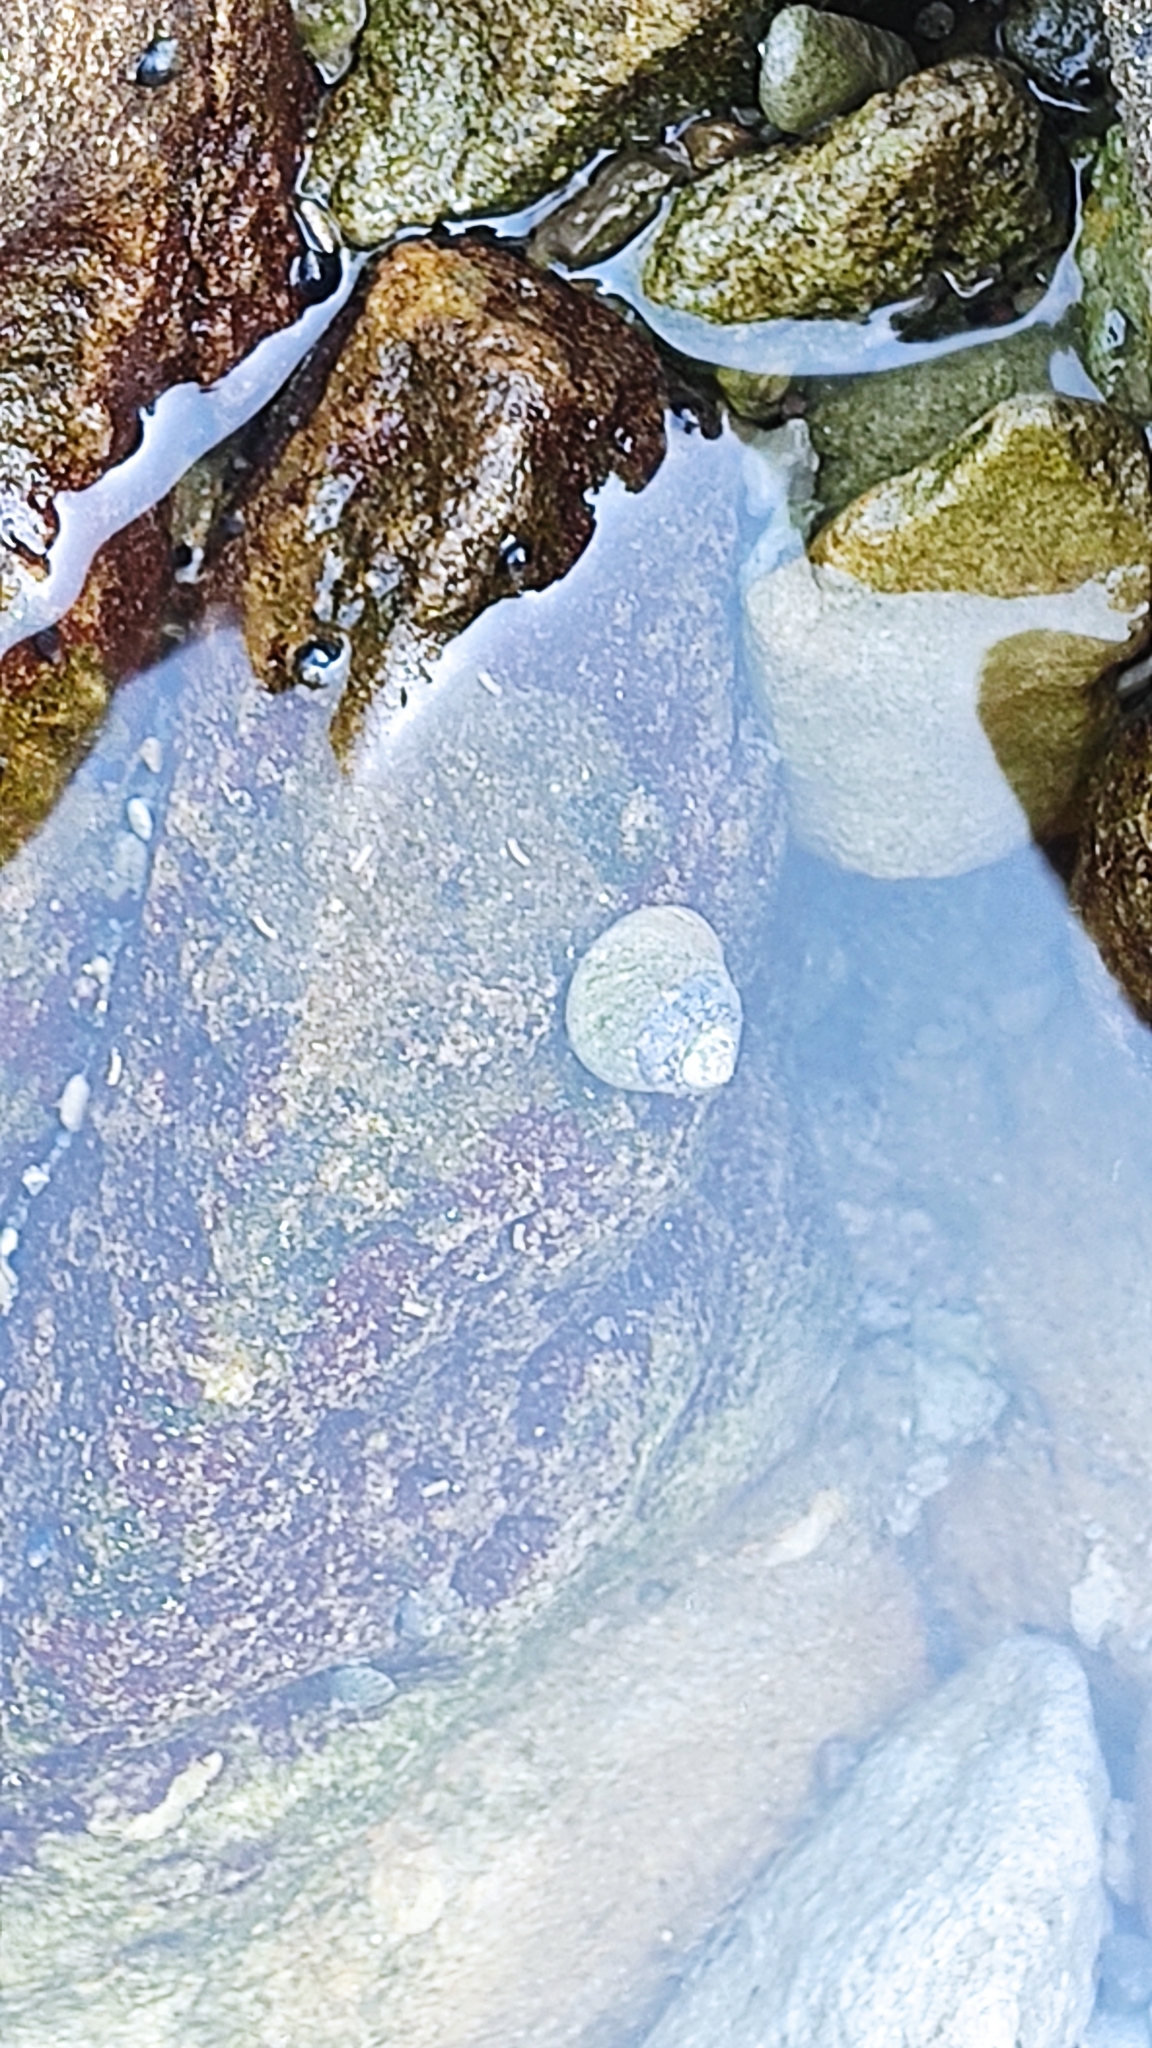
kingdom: Animalia
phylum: Mollusca
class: Gastropoda
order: Trochida
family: Trochidae
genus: Phorcus
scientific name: Phorcus lineatus
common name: Toothed top shell
